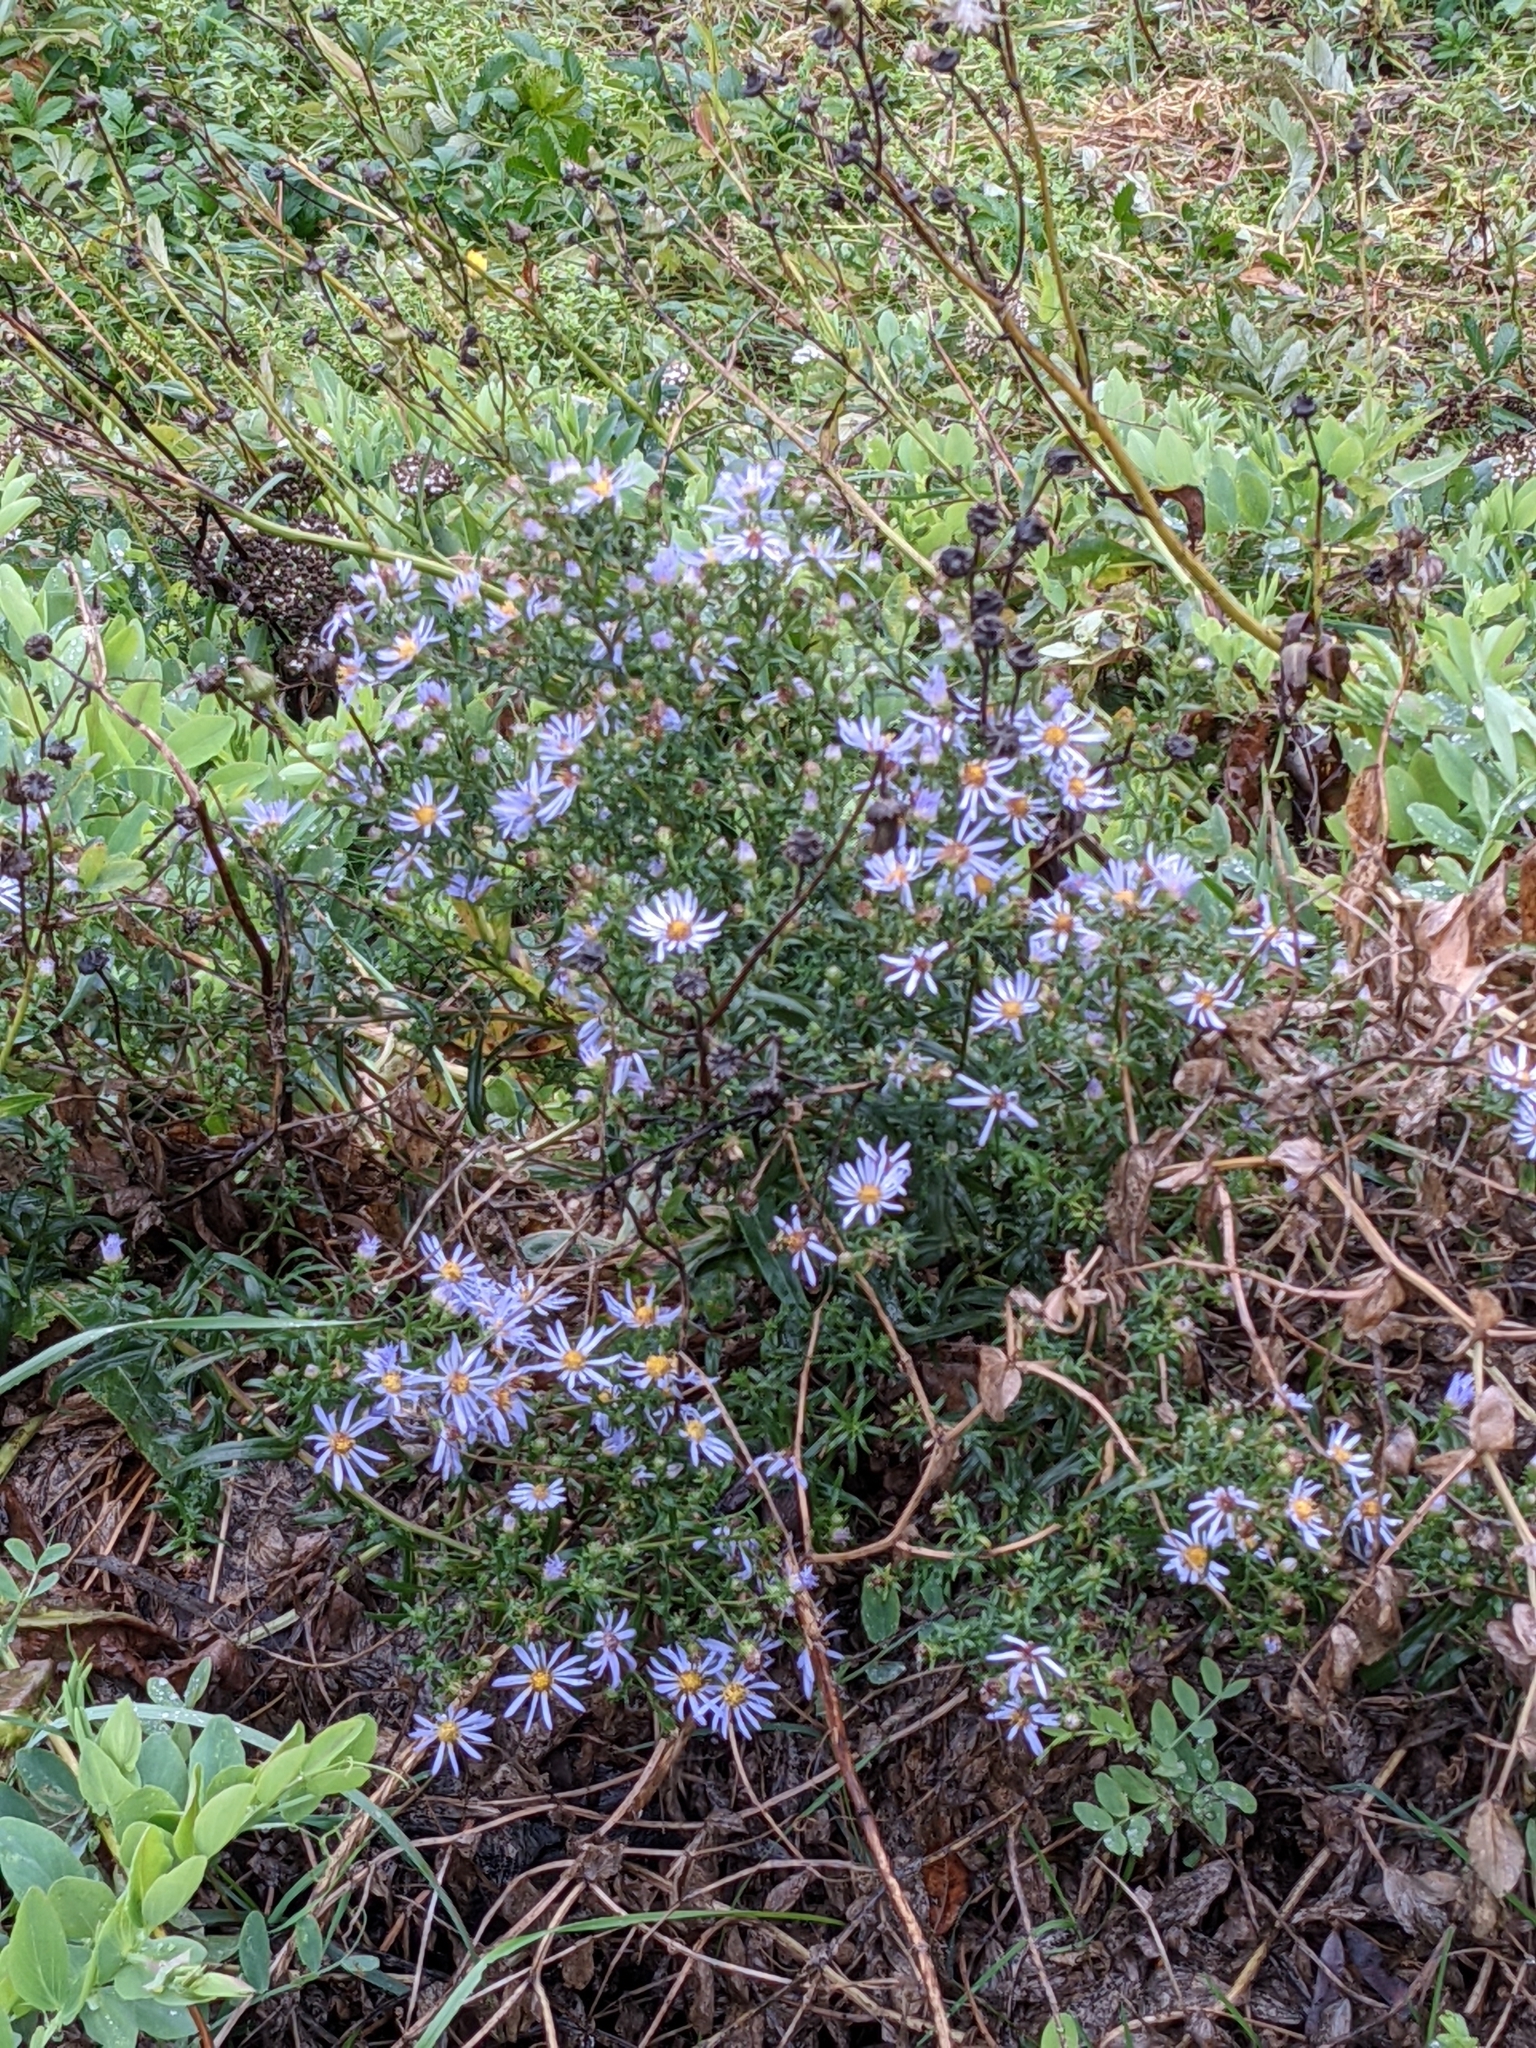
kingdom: Plantae
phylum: Tracheophyta
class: Magnoliopsida
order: Asterales
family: Asteraceae
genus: Symphyotrichum
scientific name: Symphyotrichum subspicatum
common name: Douglas' aster
